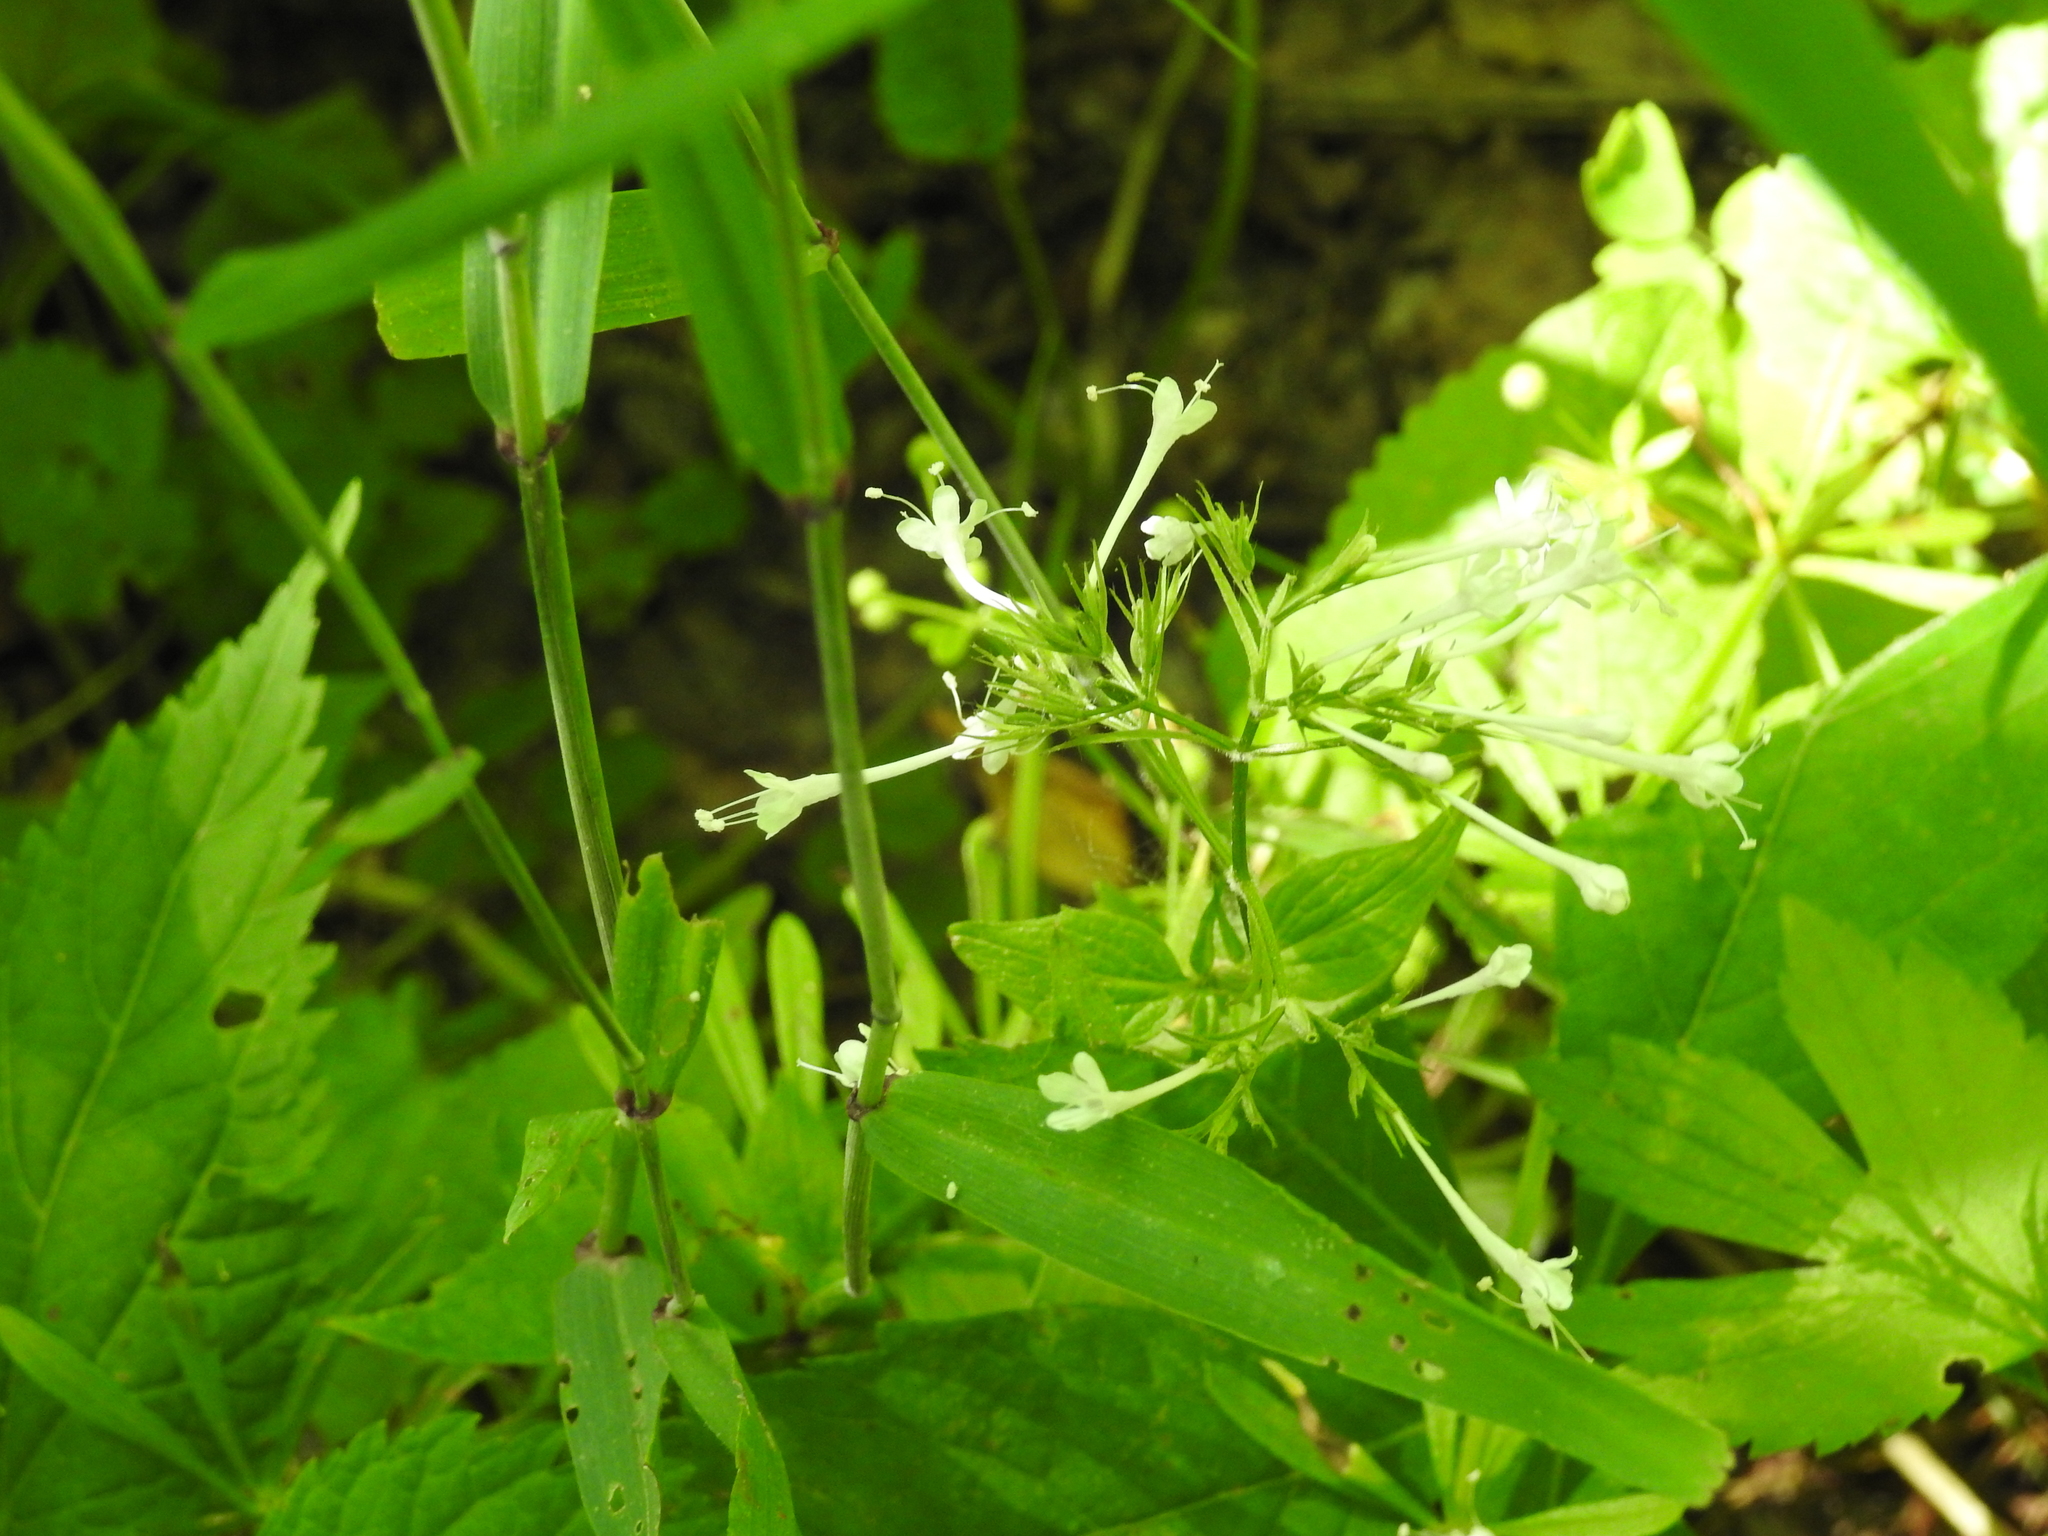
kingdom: Plantae
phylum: Tracheophyta
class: Magnoliopsida
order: Dipsacales
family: Caprifoliaceae
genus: Valeriana
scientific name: Valeriana pauciflora
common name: Long-tube valeriana
